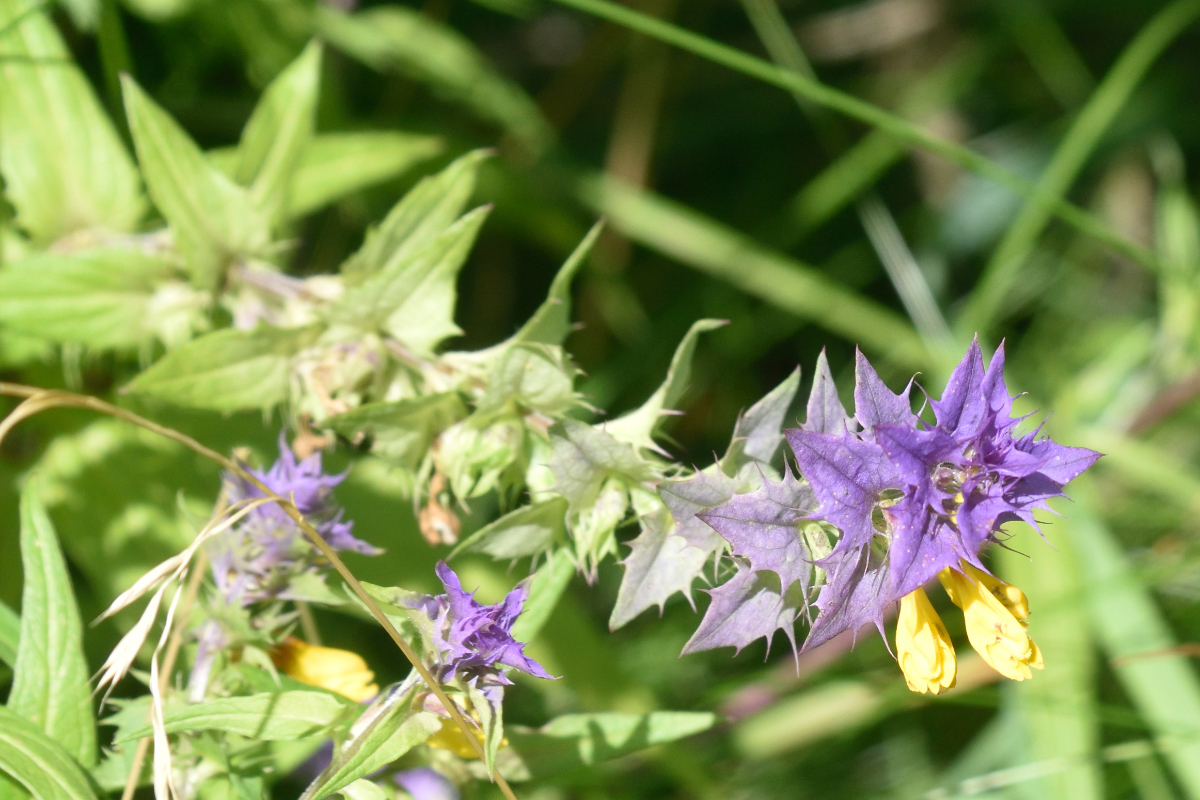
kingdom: Plantae
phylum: Tracheophyta
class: Magnoliopsida
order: Lamiales
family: Orobanchaceae
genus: Melampyrum
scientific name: Melampyrum nemorosum
